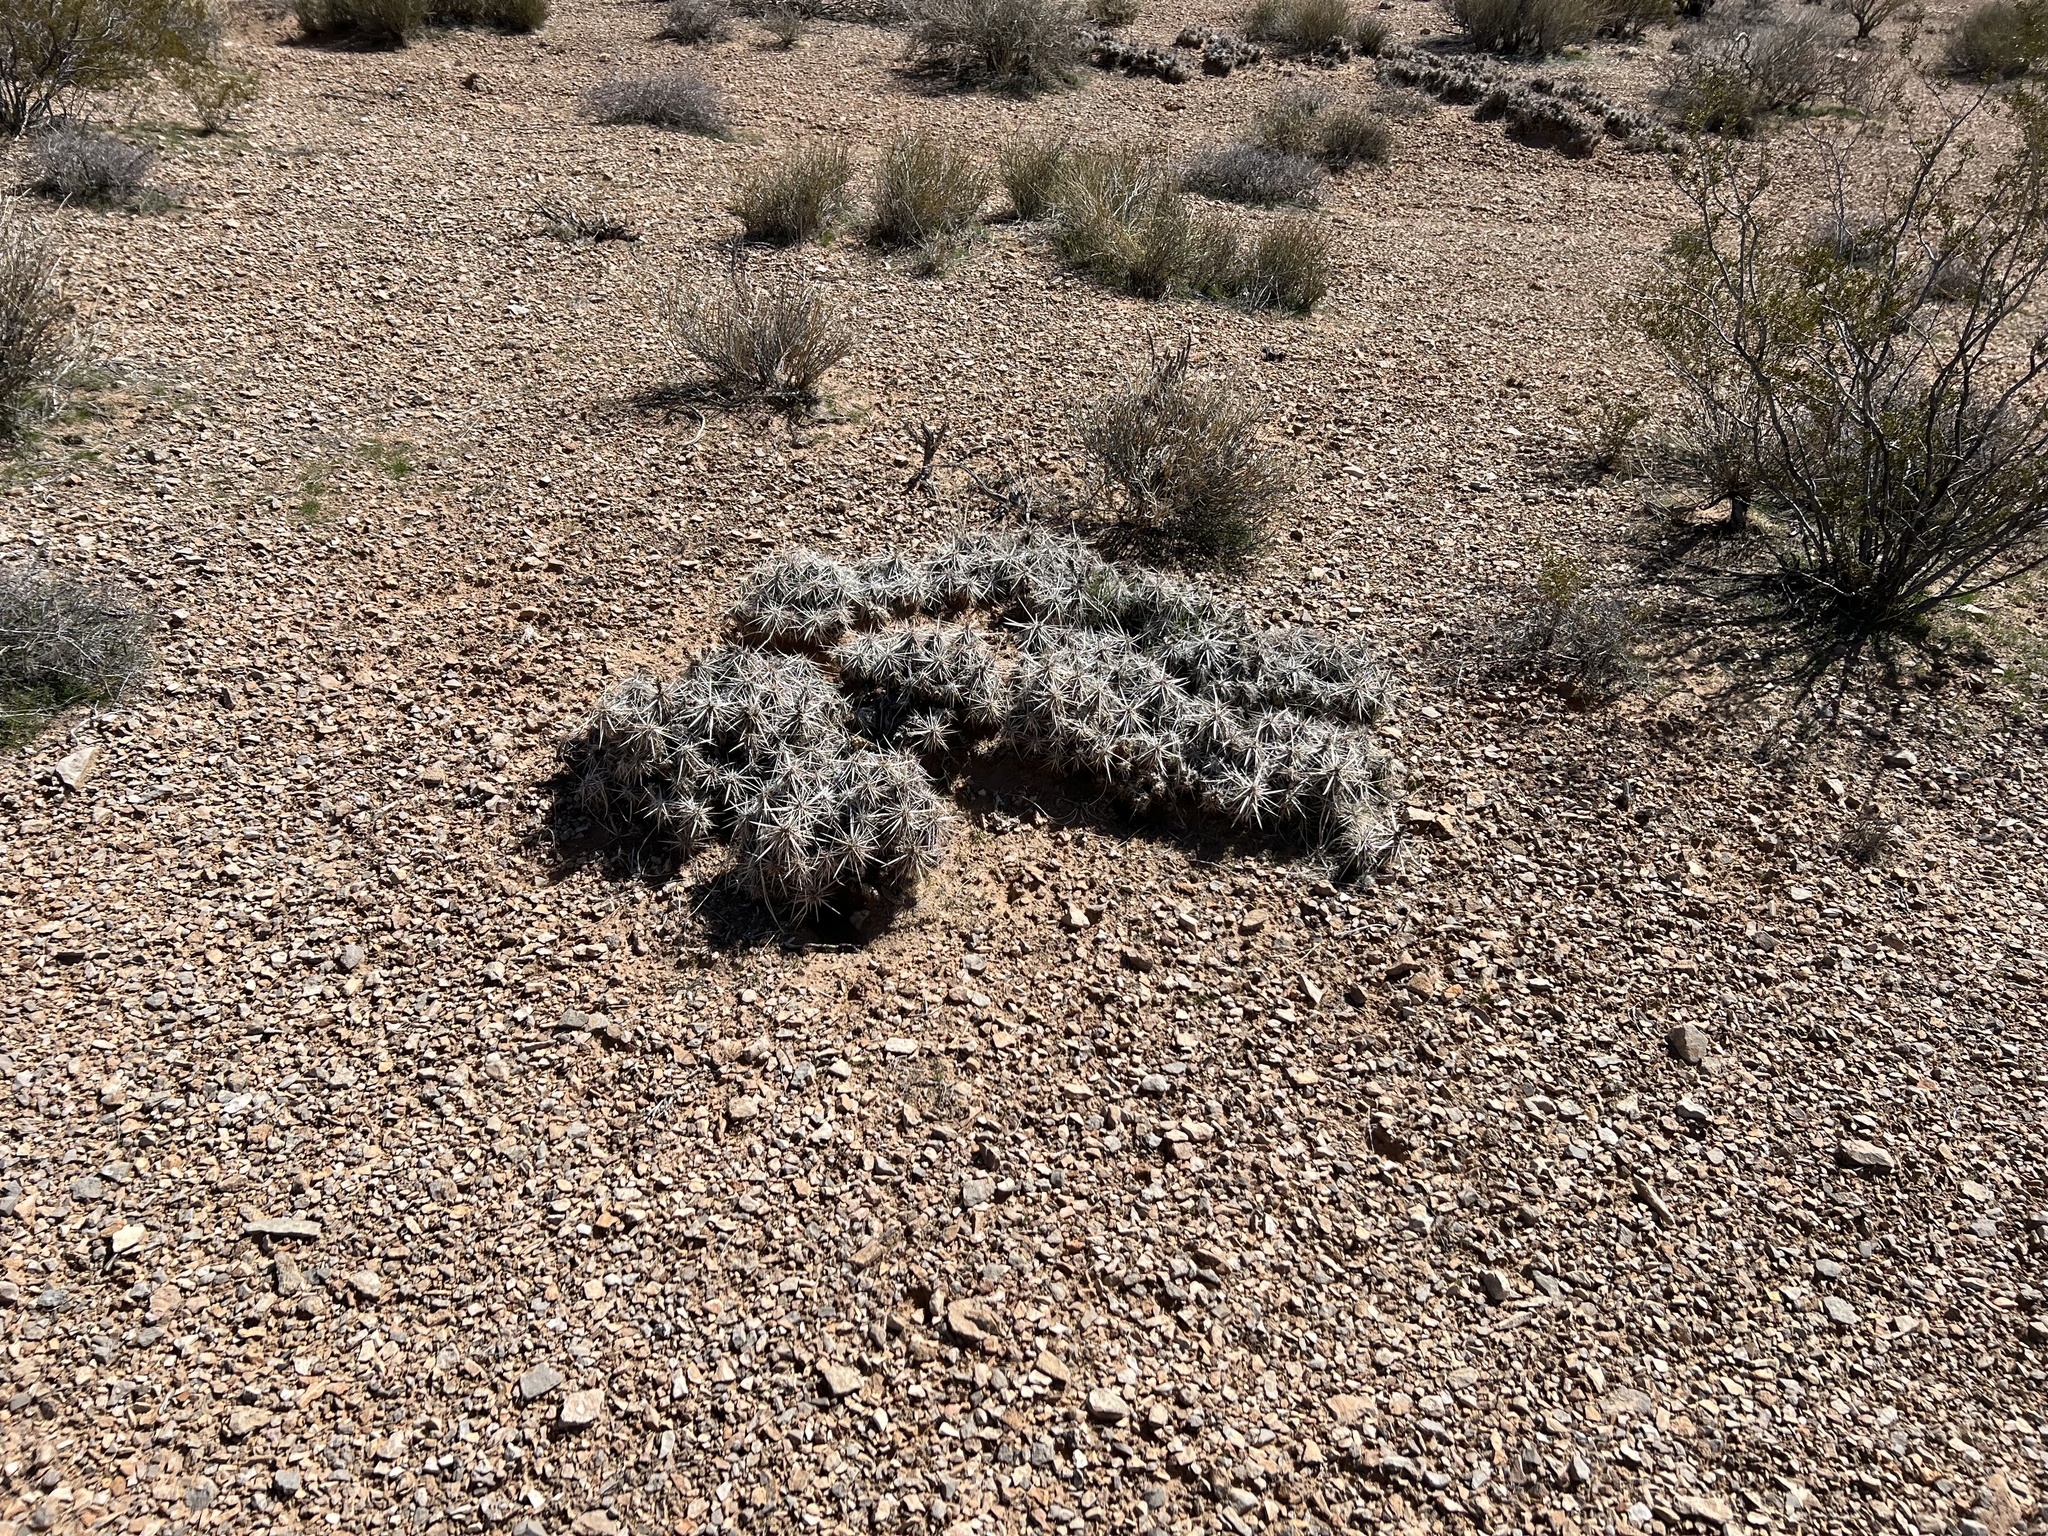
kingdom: Plantae
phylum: Tracheophyta
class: Magnoliopsida
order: Caryophyllales
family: Cactaceae
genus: Grusonia
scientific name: Grusonia parishiorum
